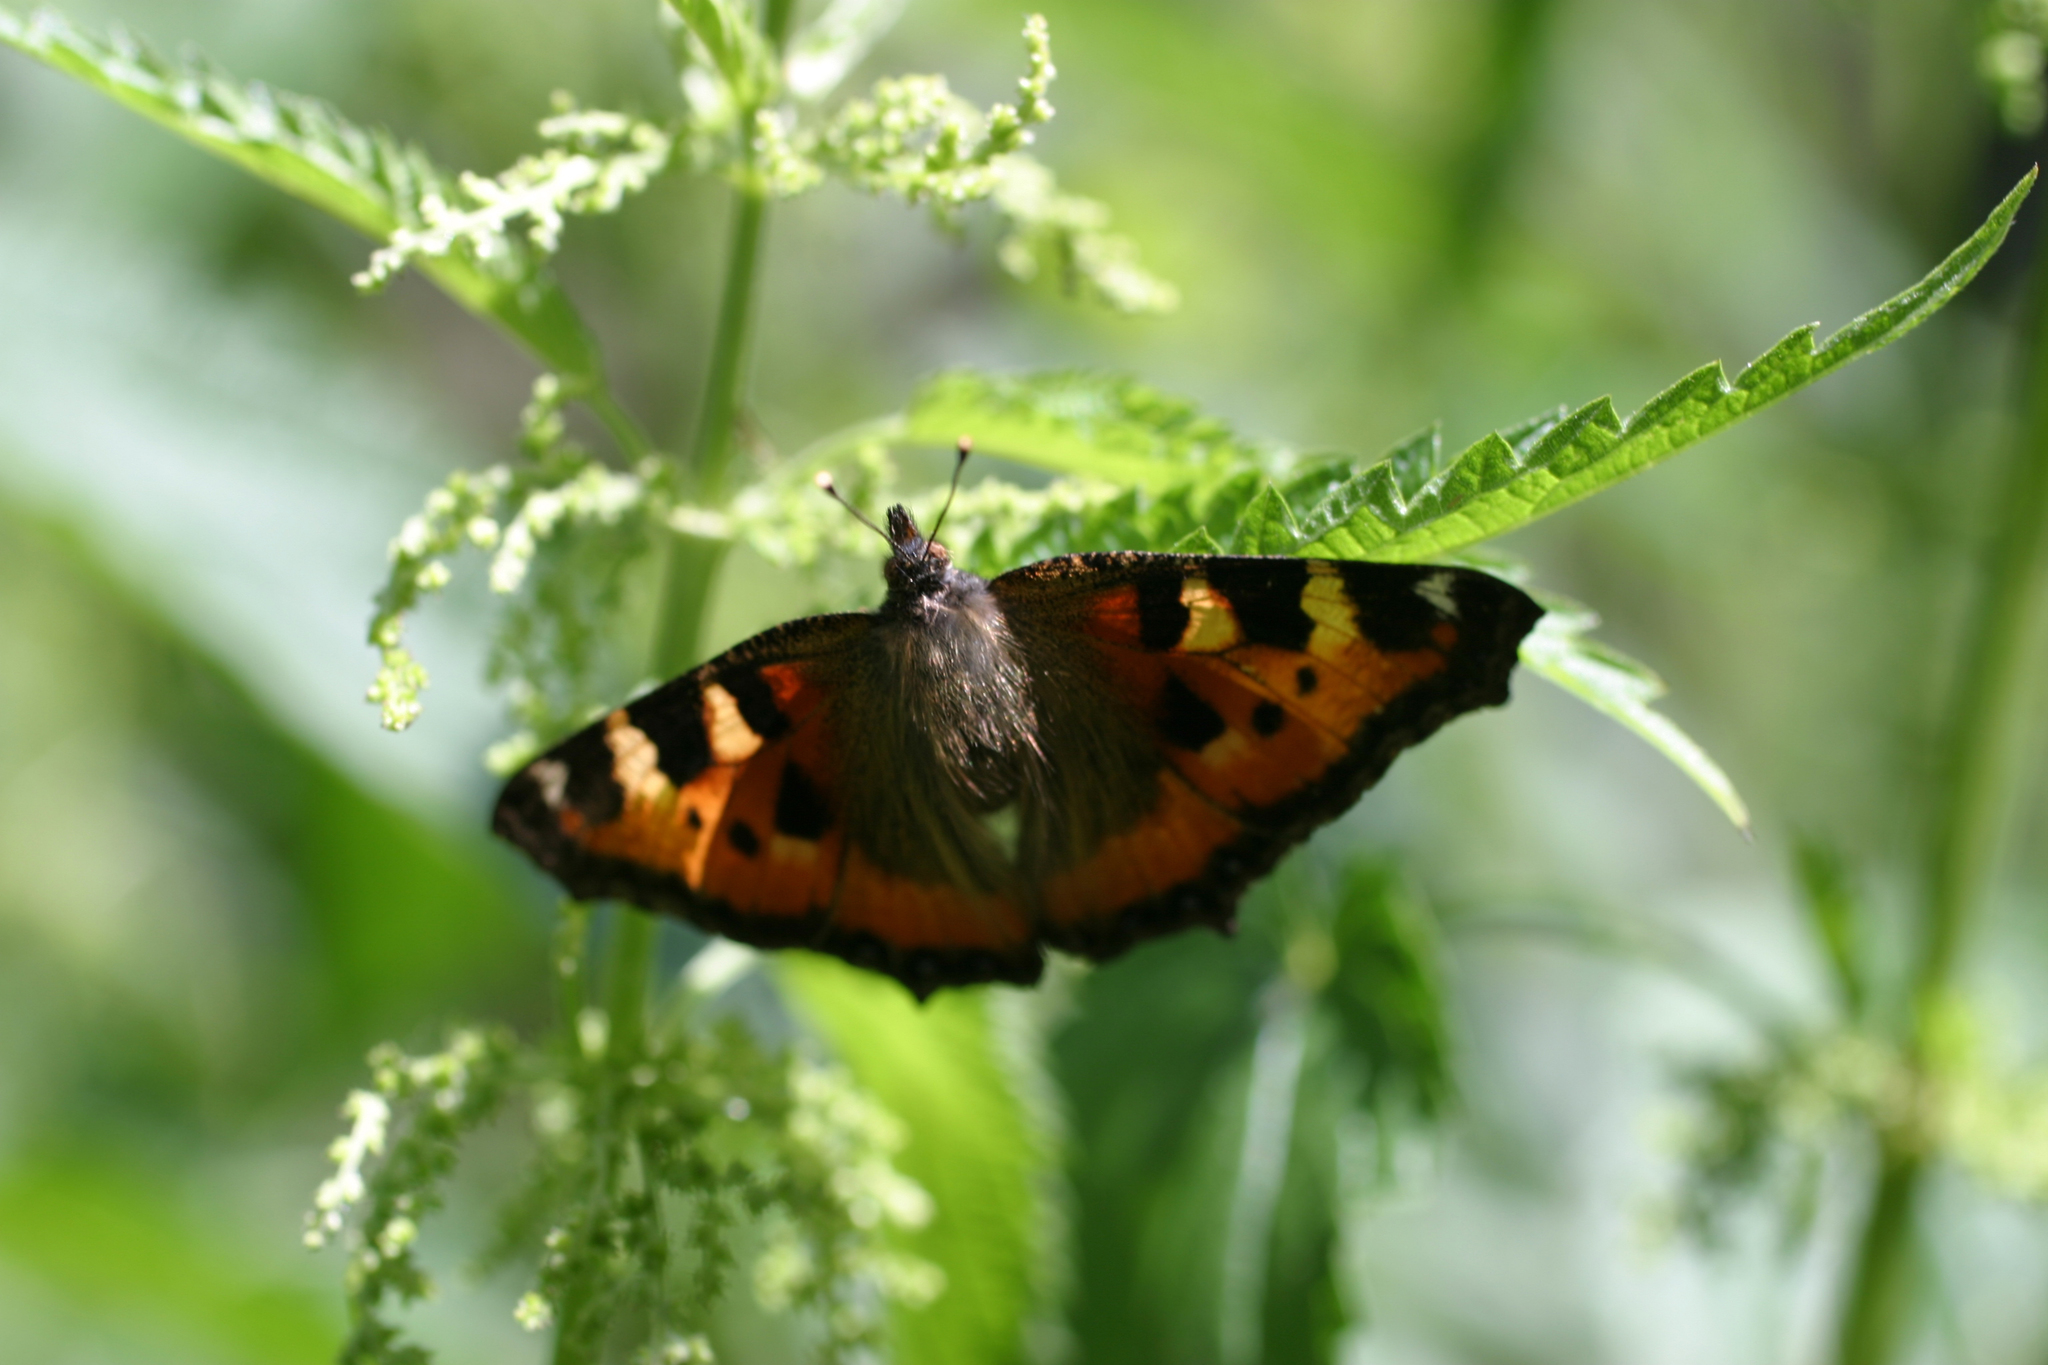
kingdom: Plantae
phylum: Tracheophyta
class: Magnoliopsida
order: Rosales
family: Urticaceae
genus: Urtica
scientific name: Urtica dioica
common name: Common nettle
